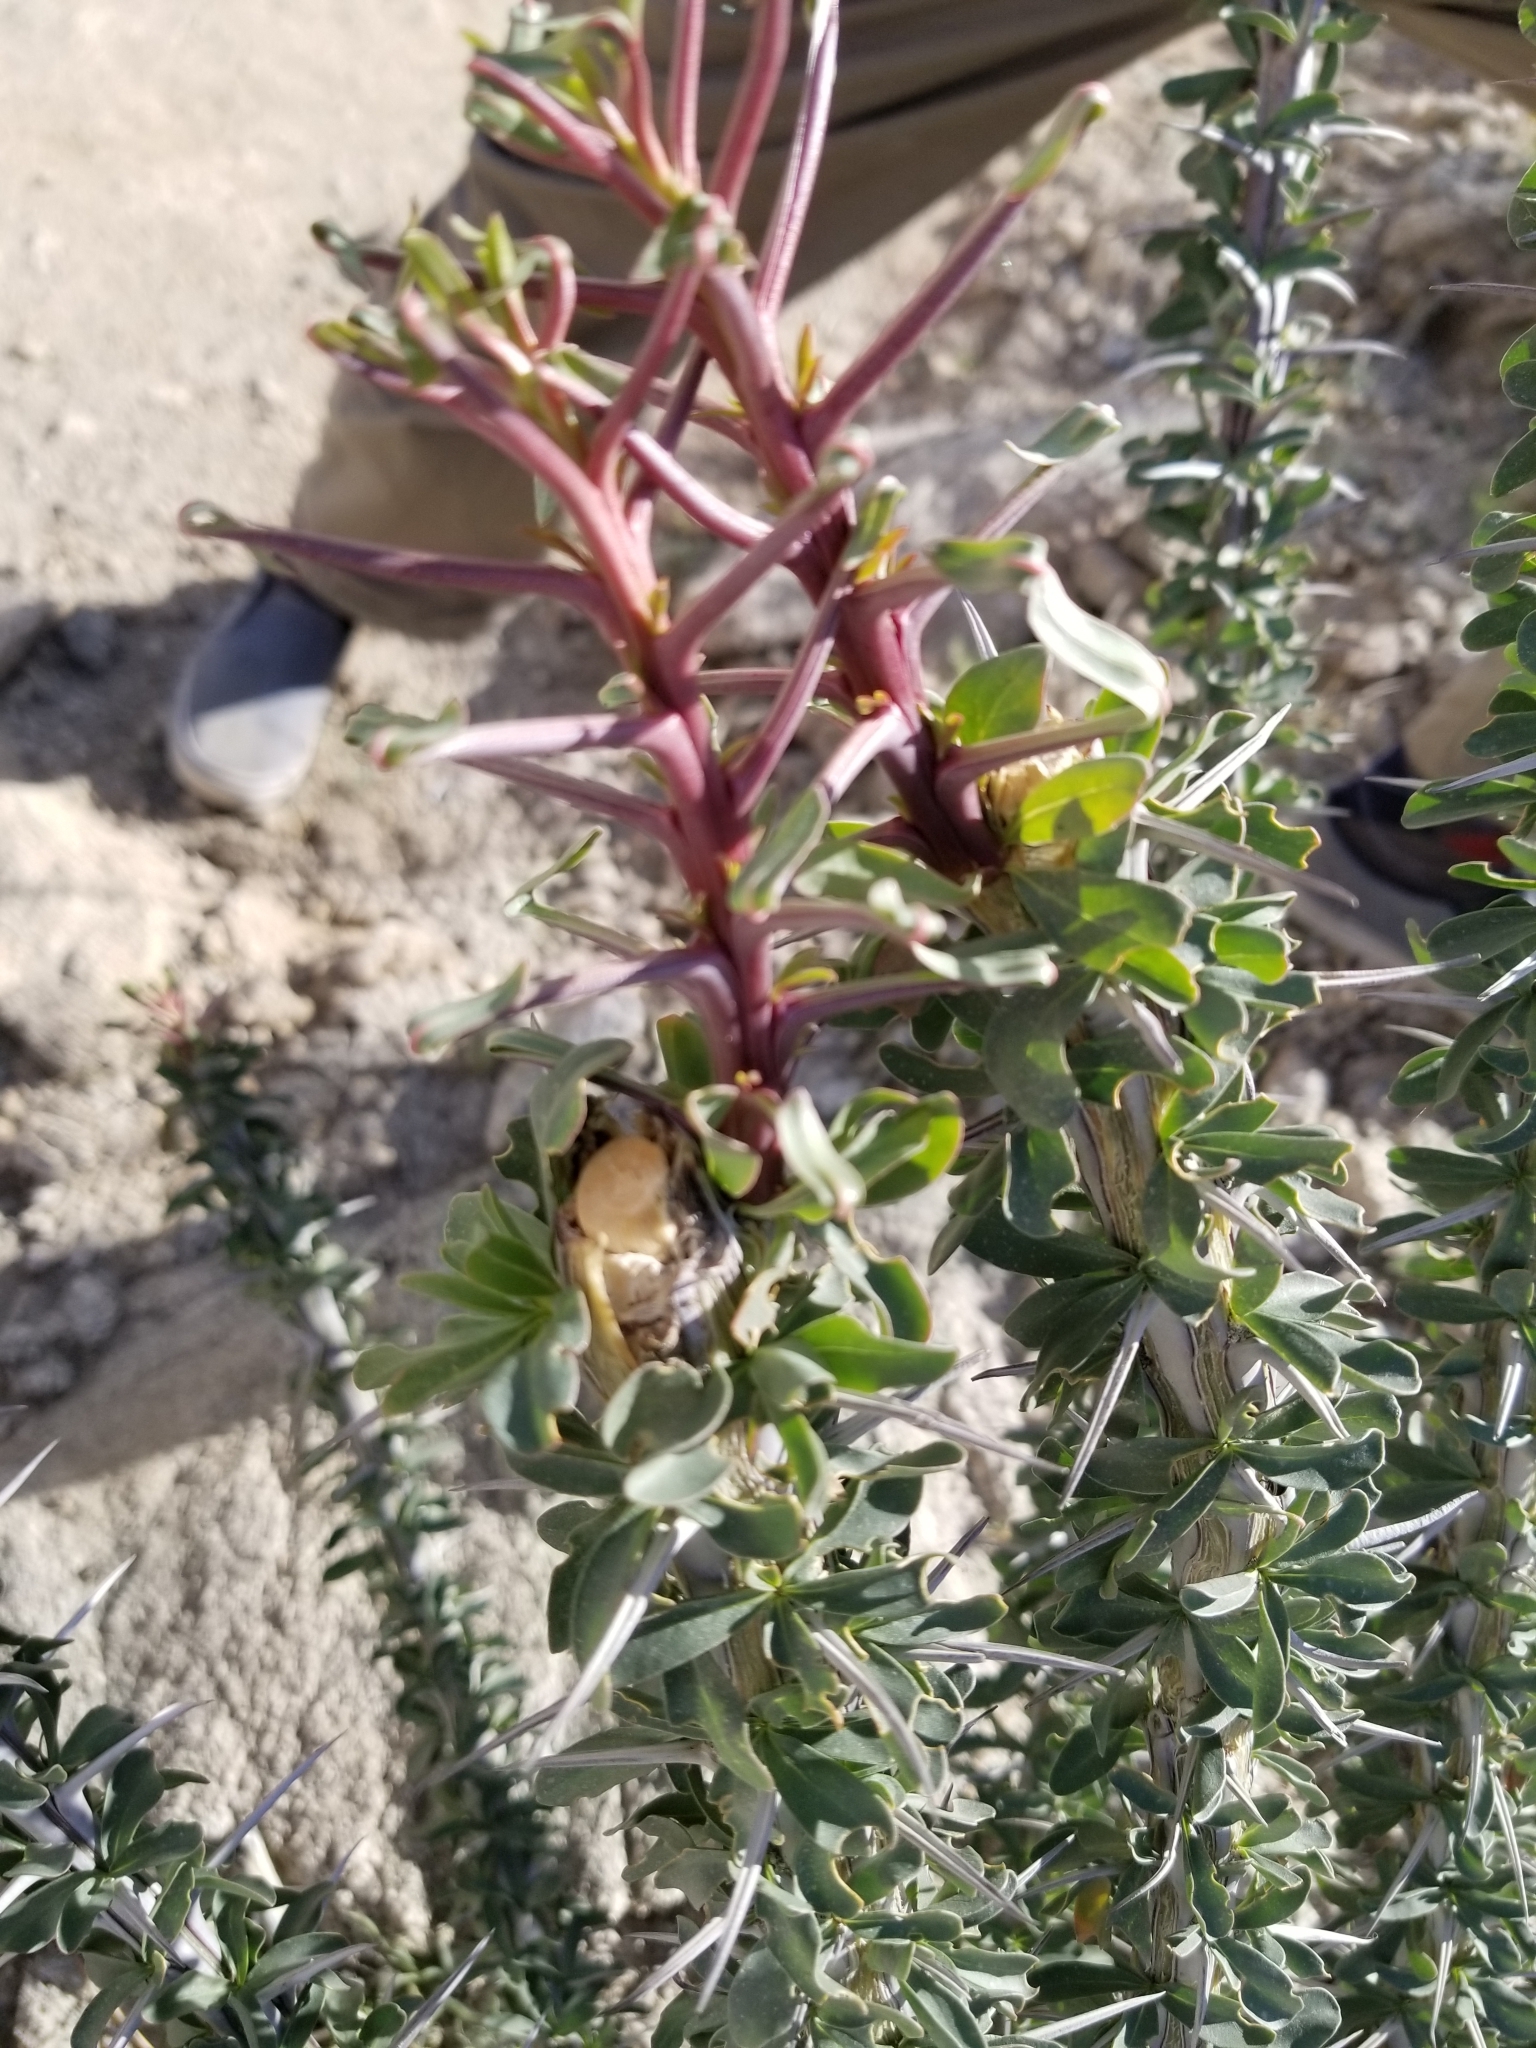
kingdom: Plantae
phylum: Tracheophyta
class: Magnoliopsida
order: Ericales
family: Fouquieriaceae
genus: Fouquieria
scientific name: Fouquieria splendens
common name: Vine-cactus
